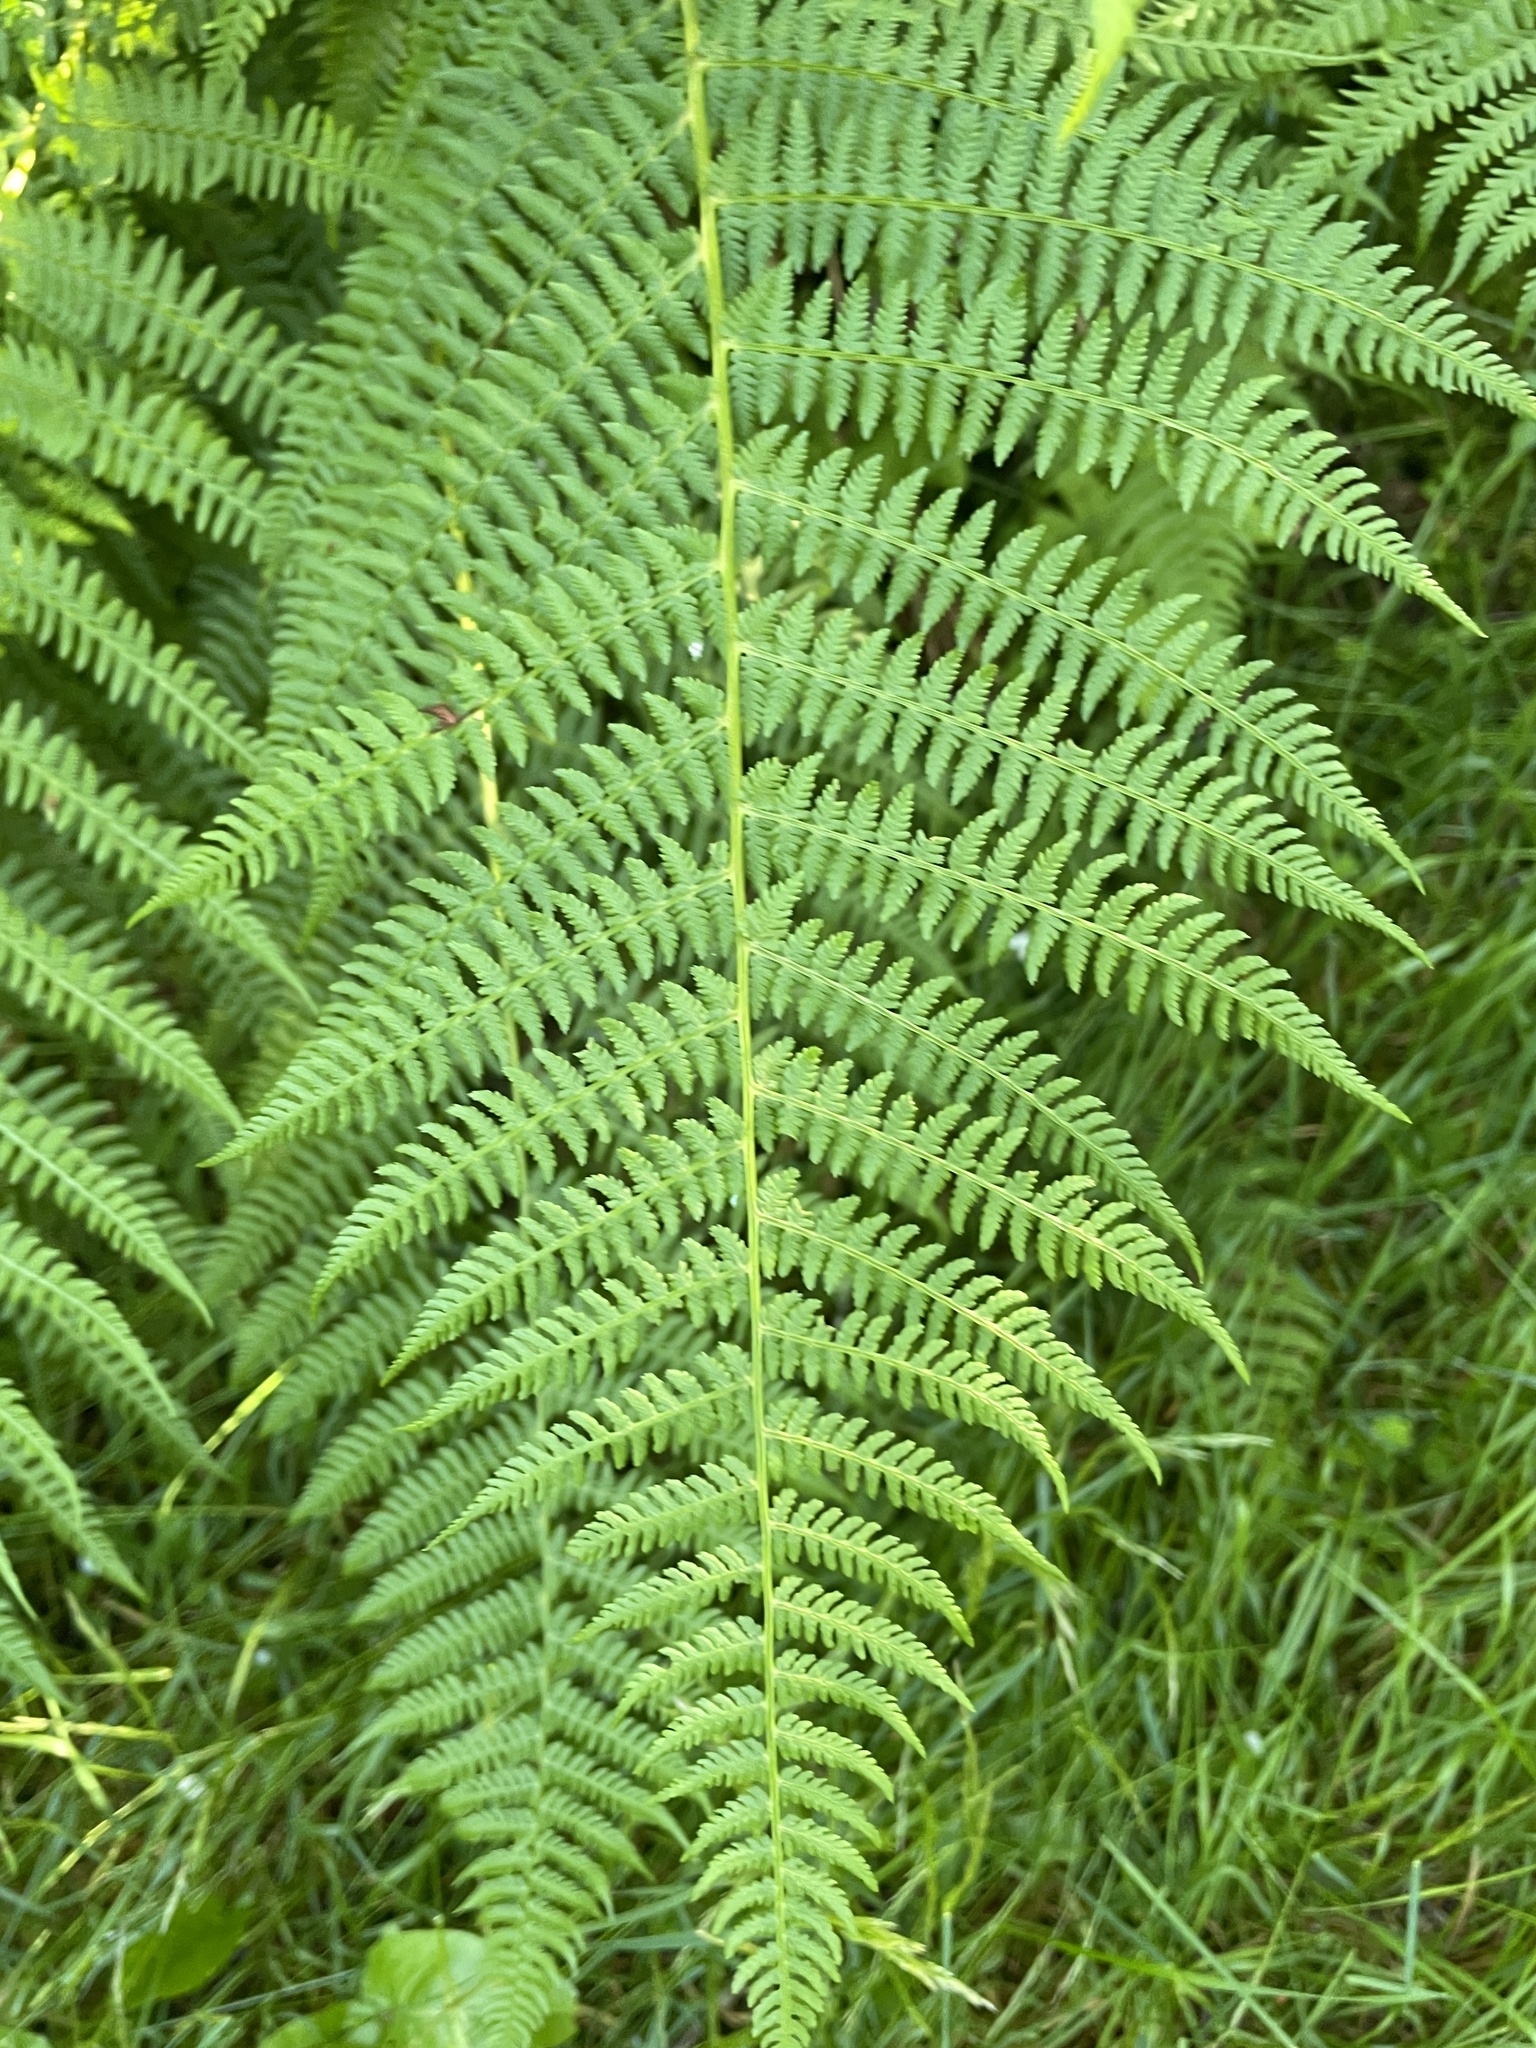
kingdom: Plantae
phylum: Tracheophyta
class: Polypodiopsida
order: Polypodiales
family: Athyriaceae
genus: Athyrium
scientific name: Athyrium filix-femina
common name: Lady fern
